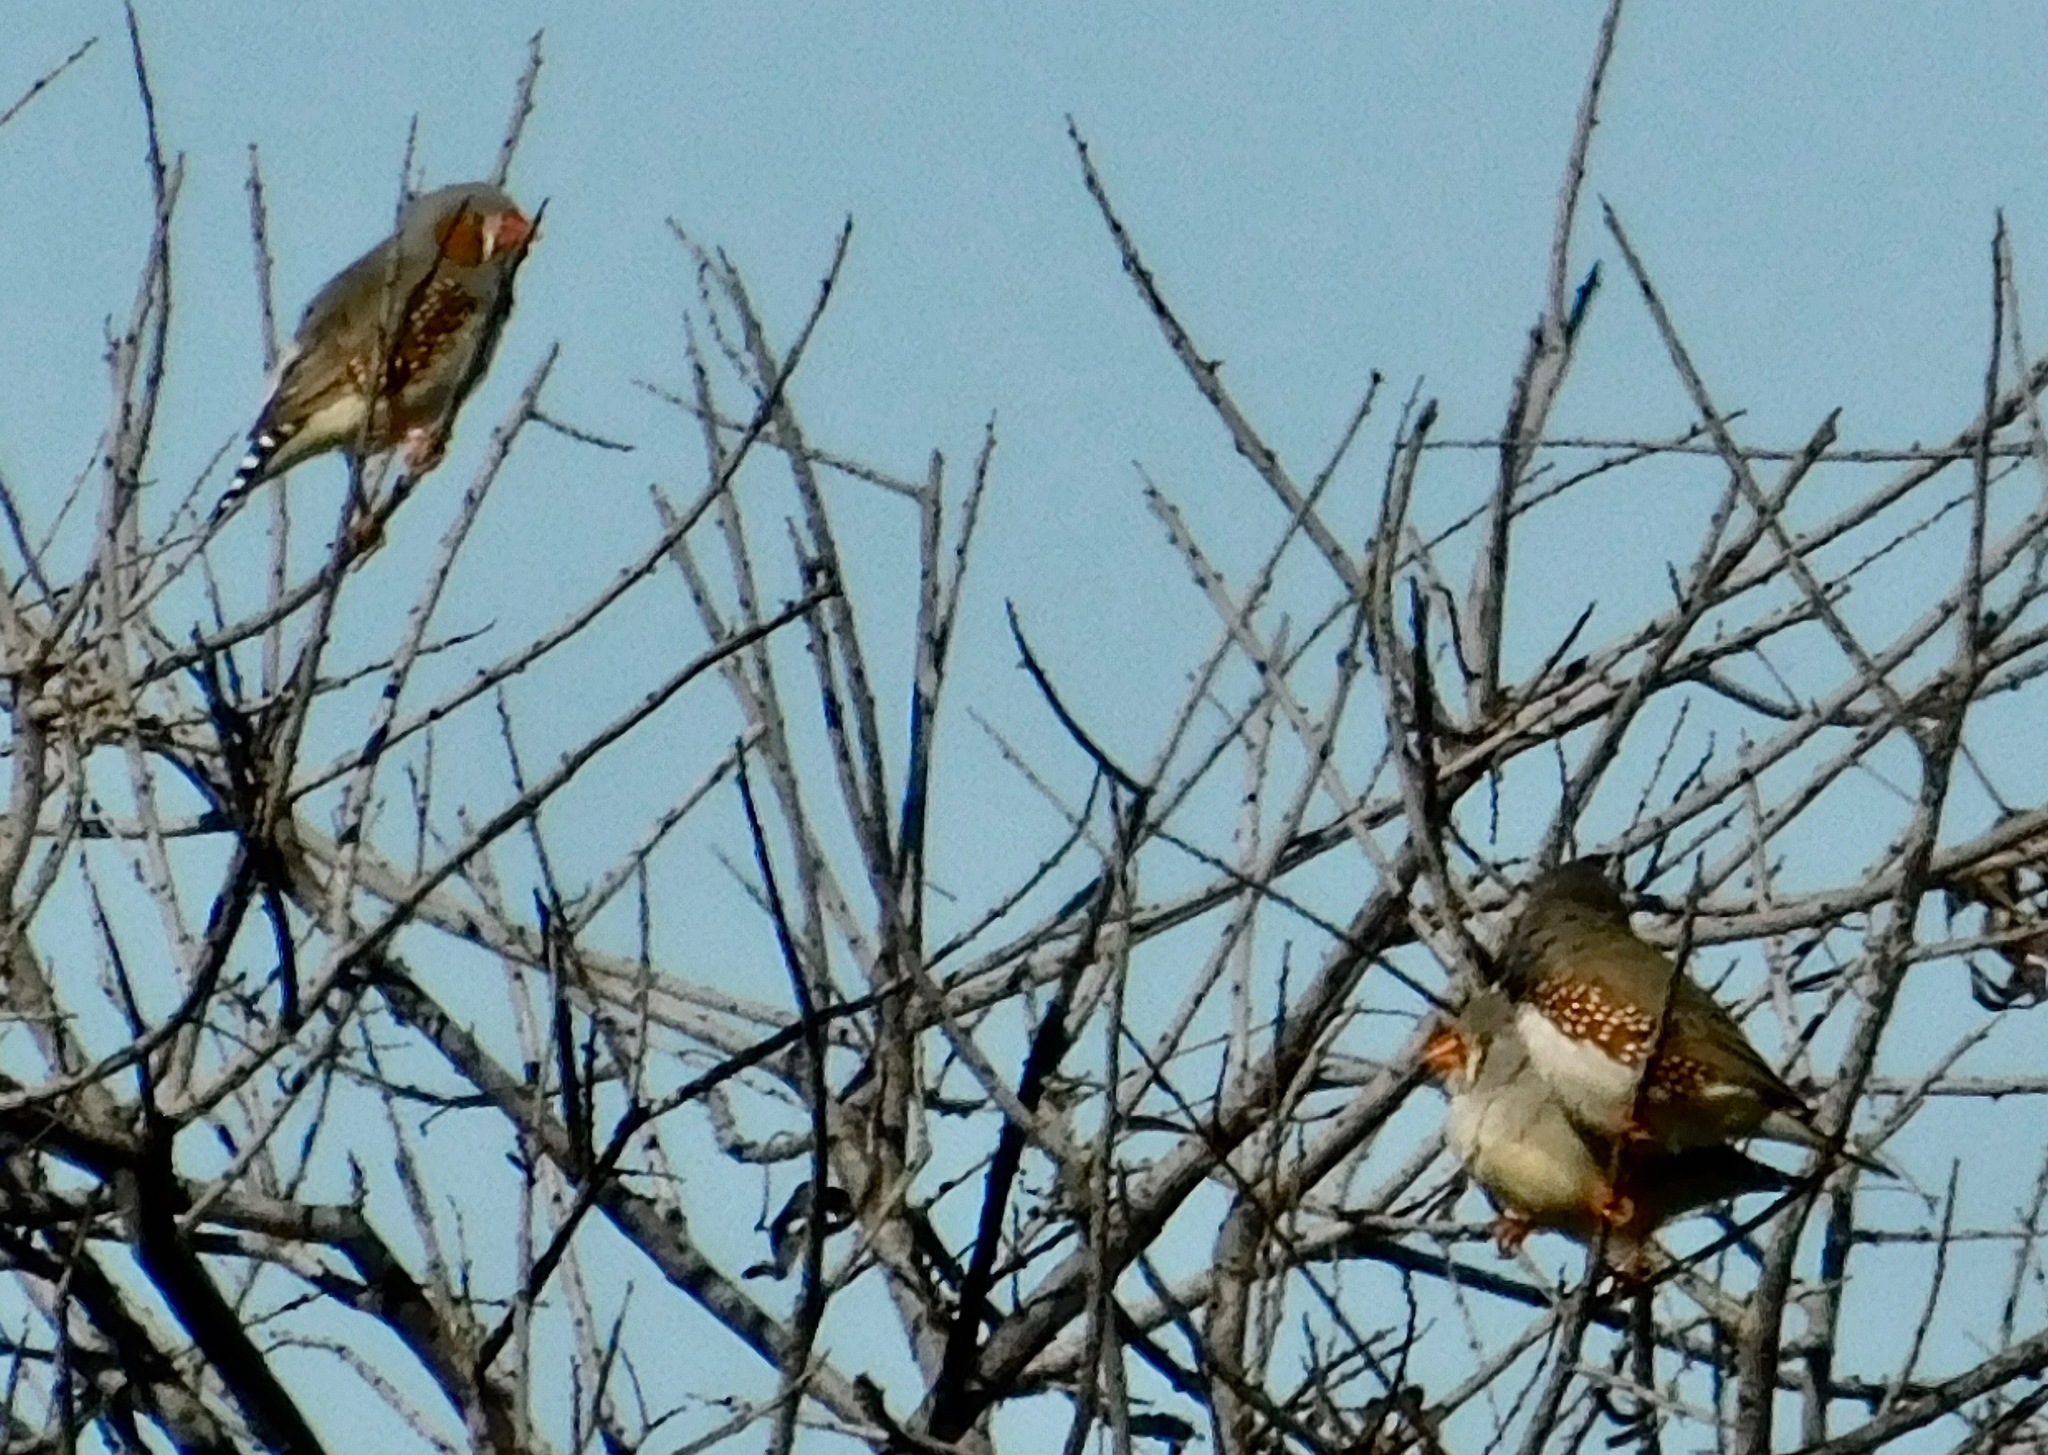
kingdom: Animalia
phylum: Chordata
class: Aves
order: Passeriformes
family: Estrildidae
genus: Taeniopygia
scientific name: Taeniopygia guttata
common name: Zebra finch
